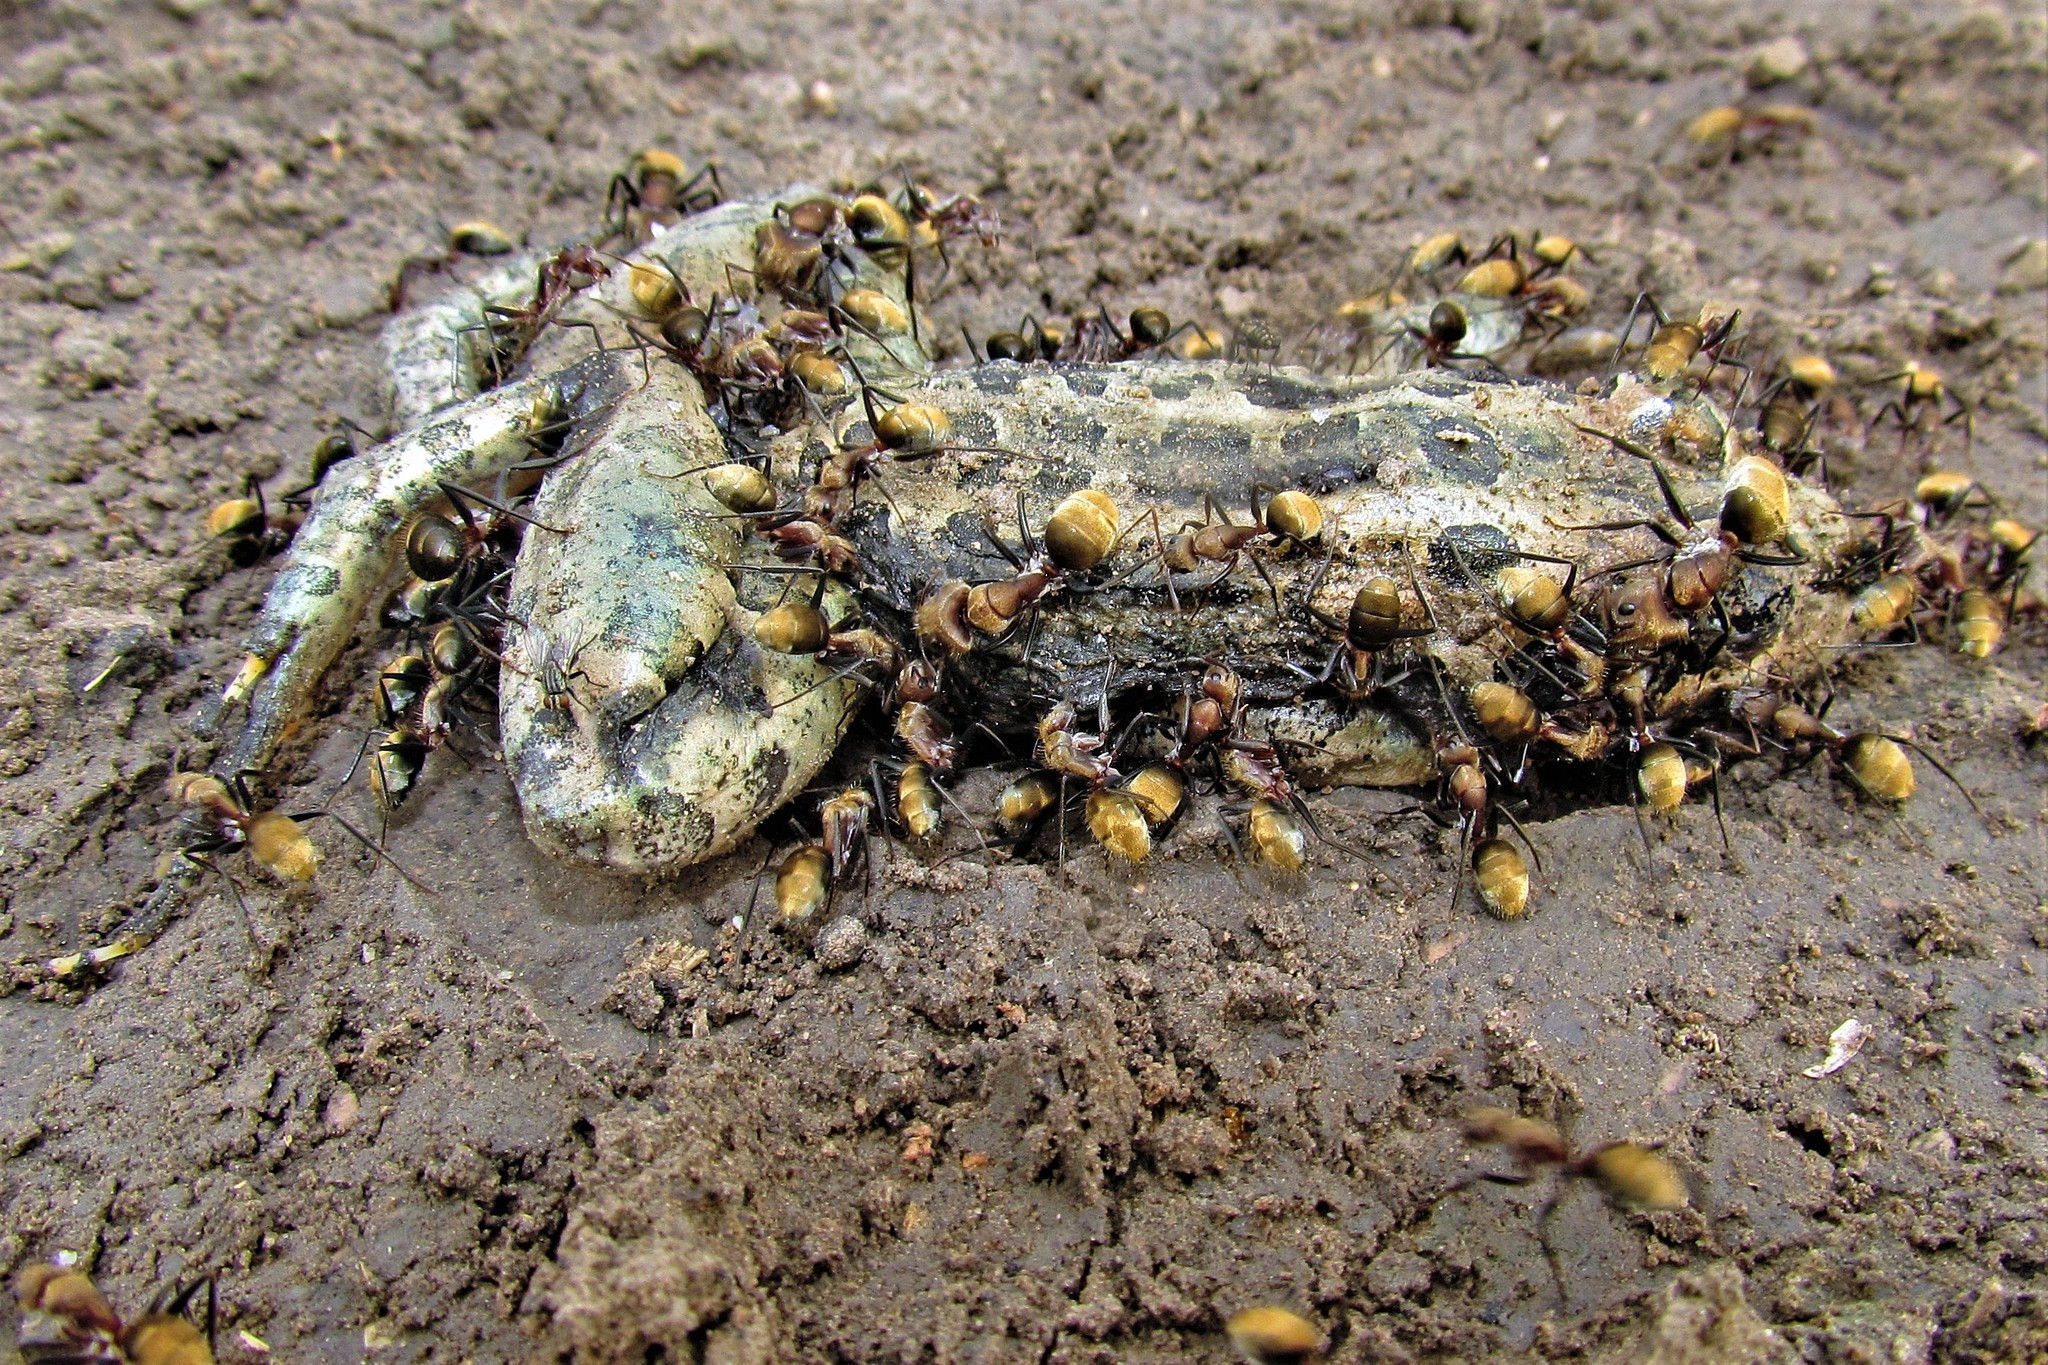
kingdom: Animalia
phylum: Arthropoda
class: Insecta
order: Hymenoptera
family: Formicidae
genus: Camponotus
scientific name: Camponotus rosariensis
